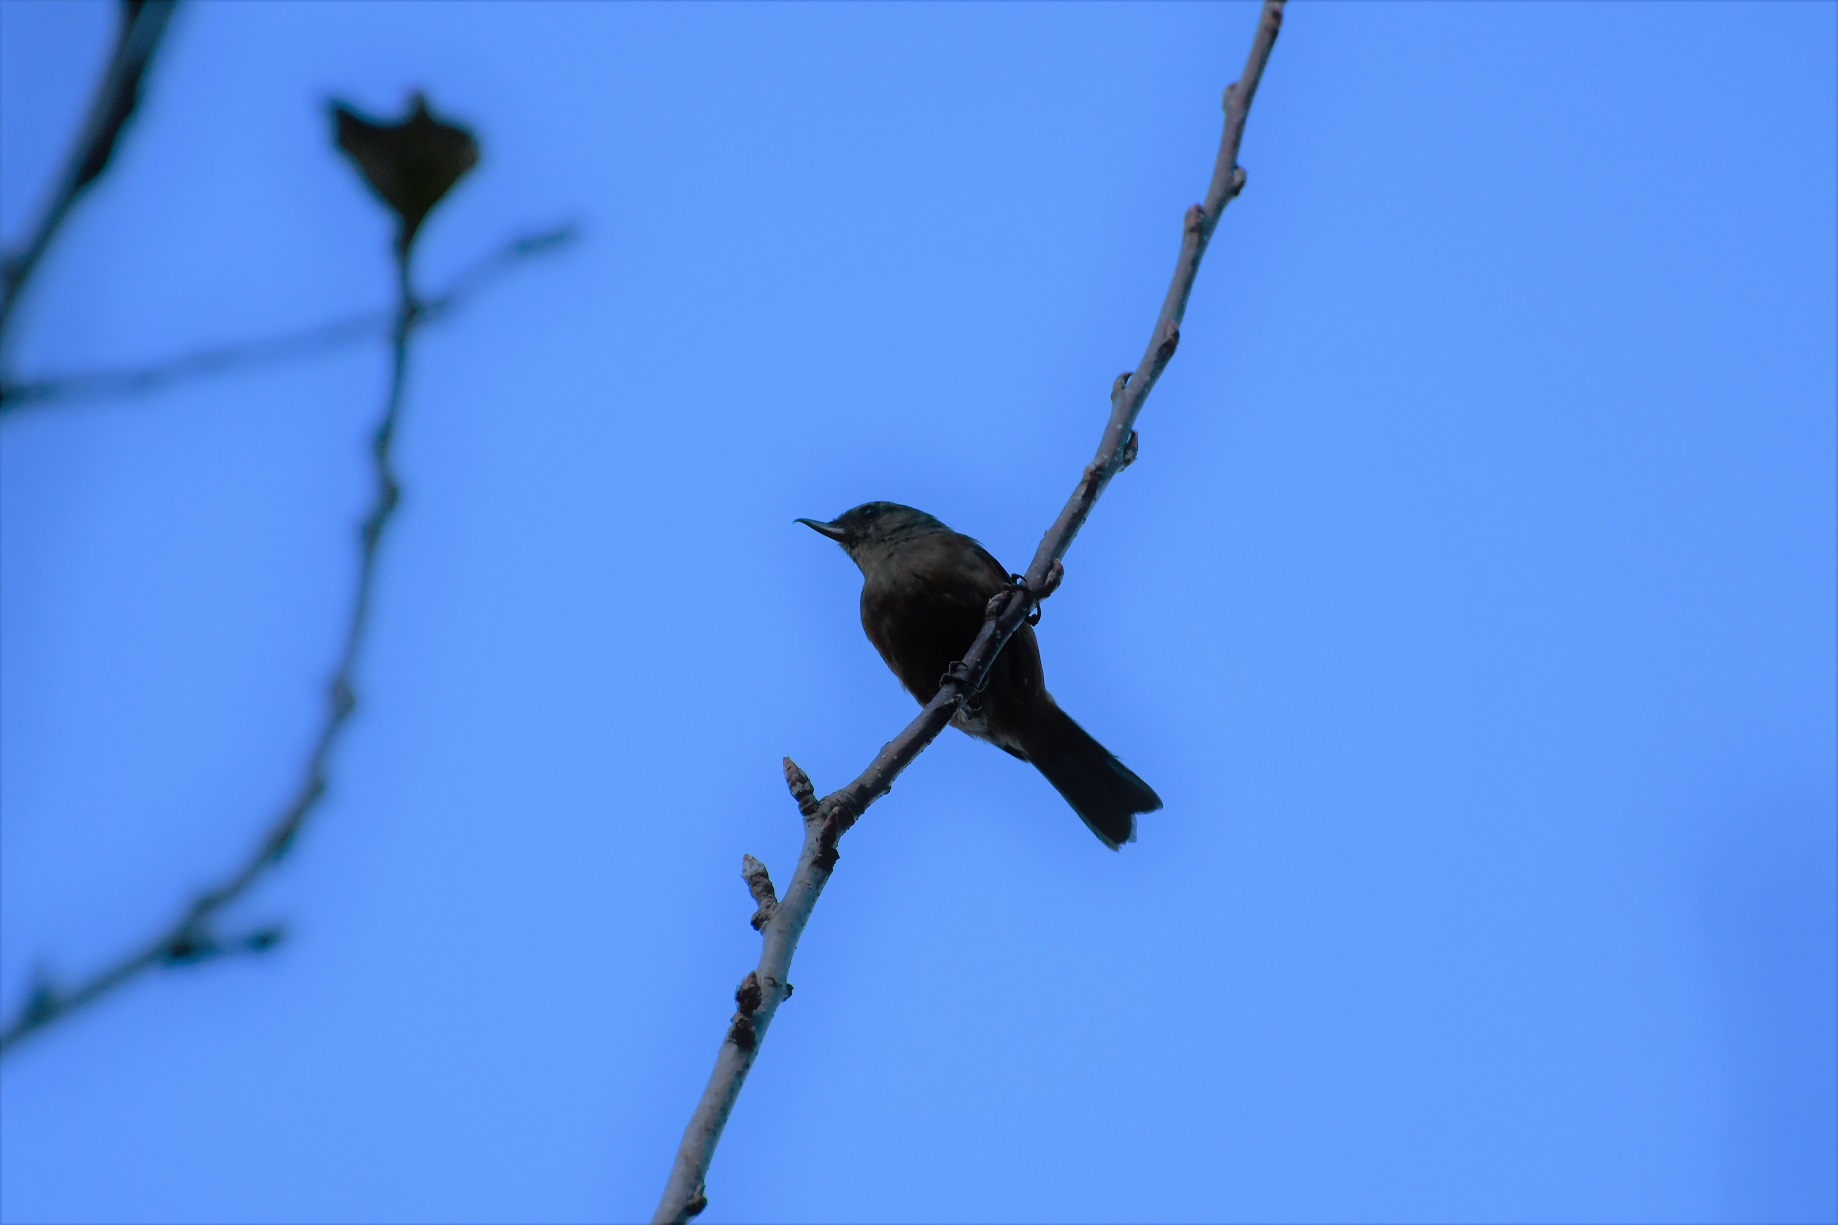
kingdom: Animalia
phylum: Chordata
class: Aves
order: Passeriformes
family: Thraupidae
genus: Diglossa
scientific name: Diglossa baritula
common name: Cinnamon-bellied flowerpiercer
